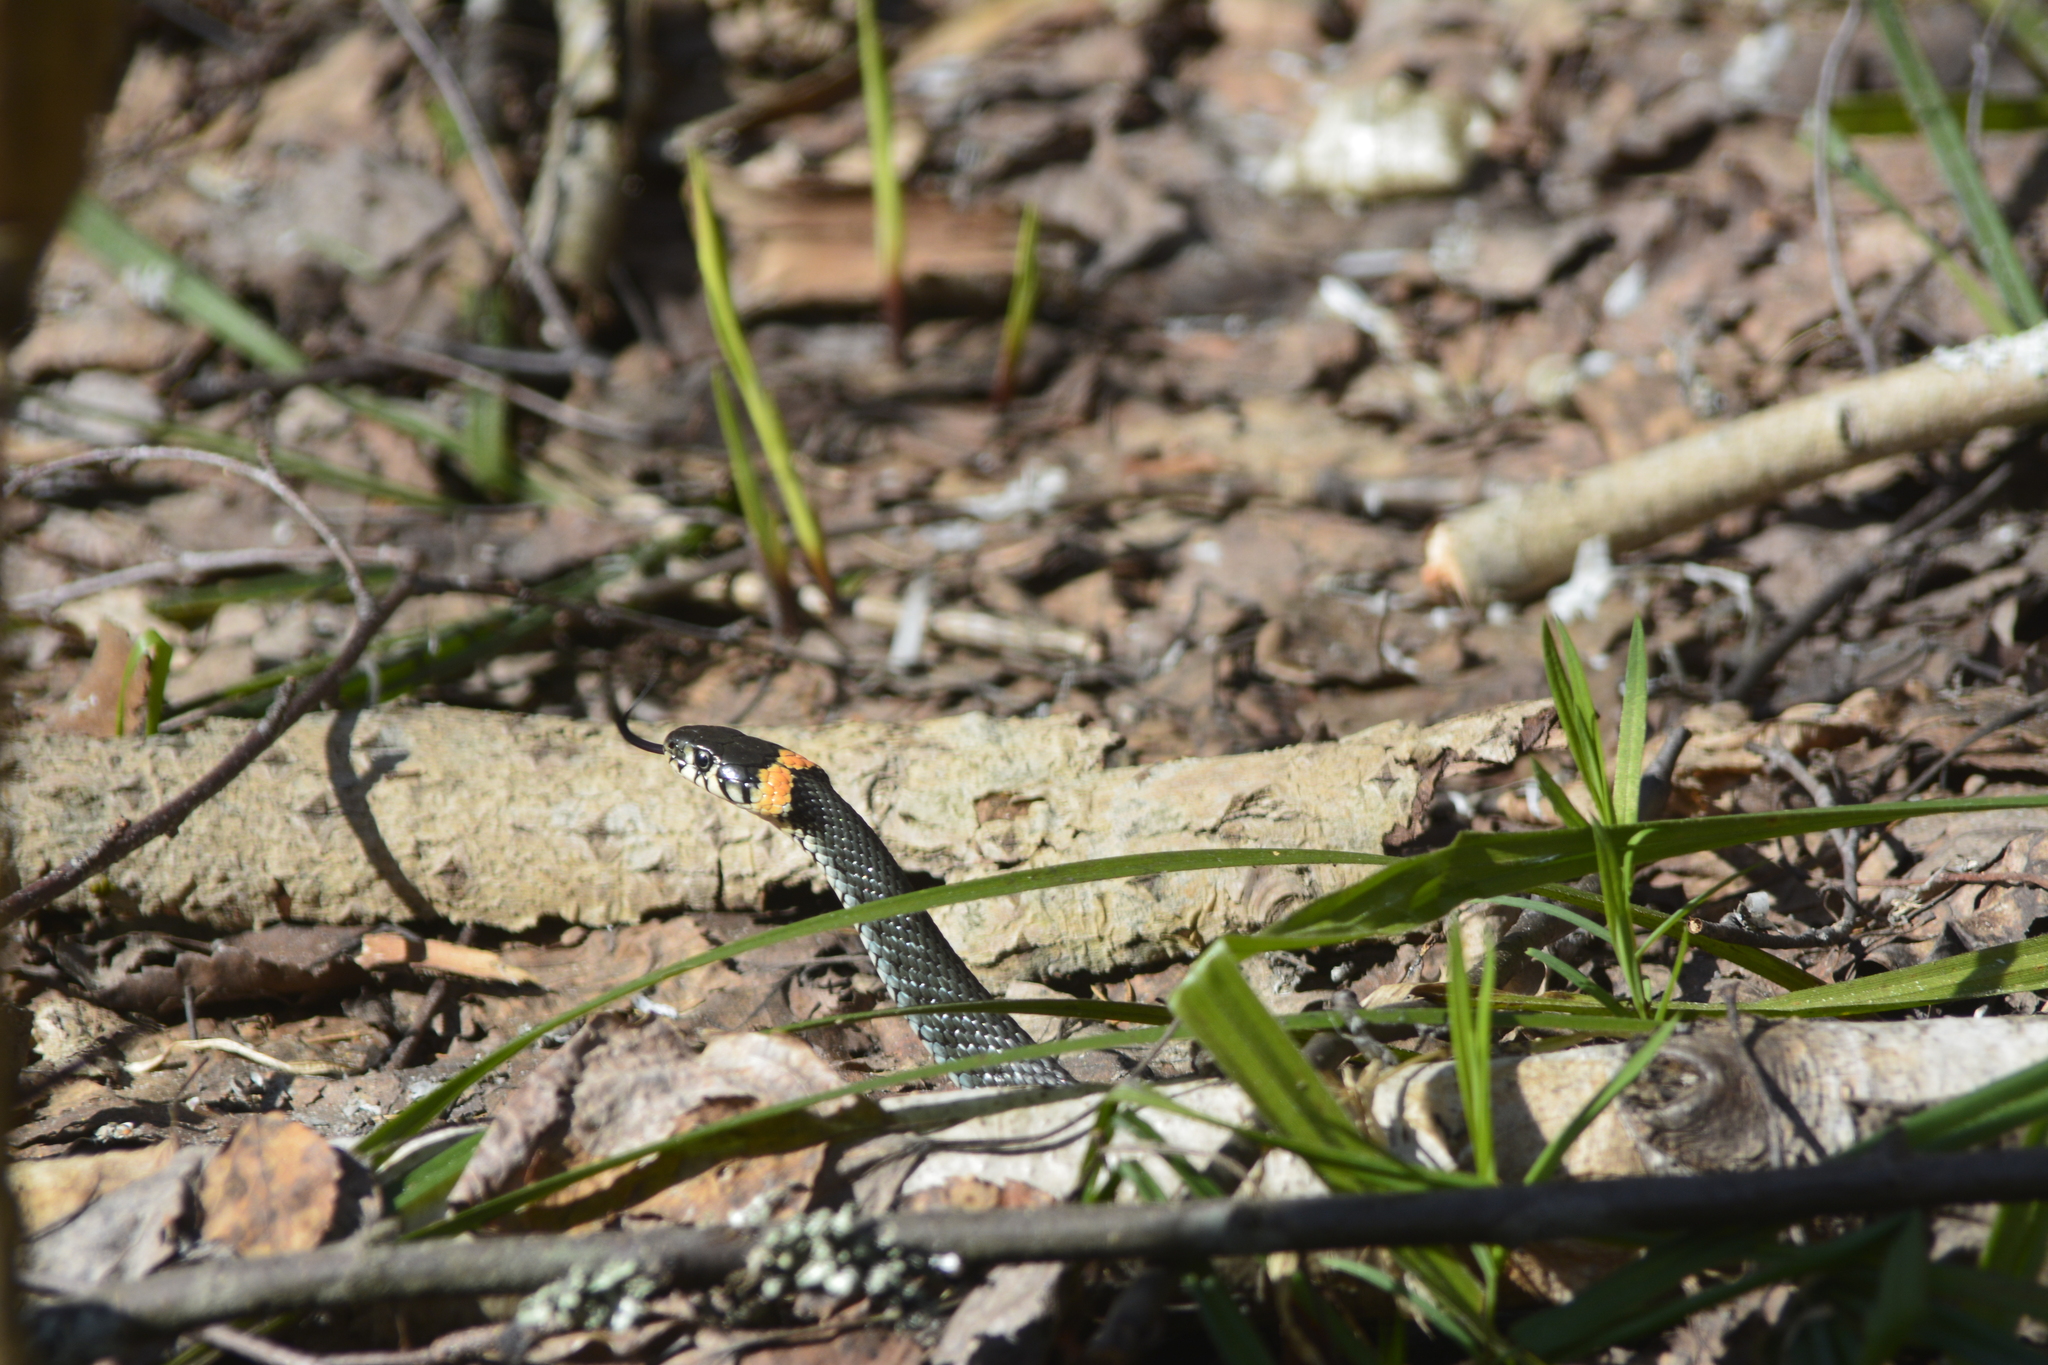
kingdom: Animalia
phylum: Chordata
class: Squamata
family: Colubridae
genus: Natrix
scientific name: Natrix natrix
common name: Grass snake
